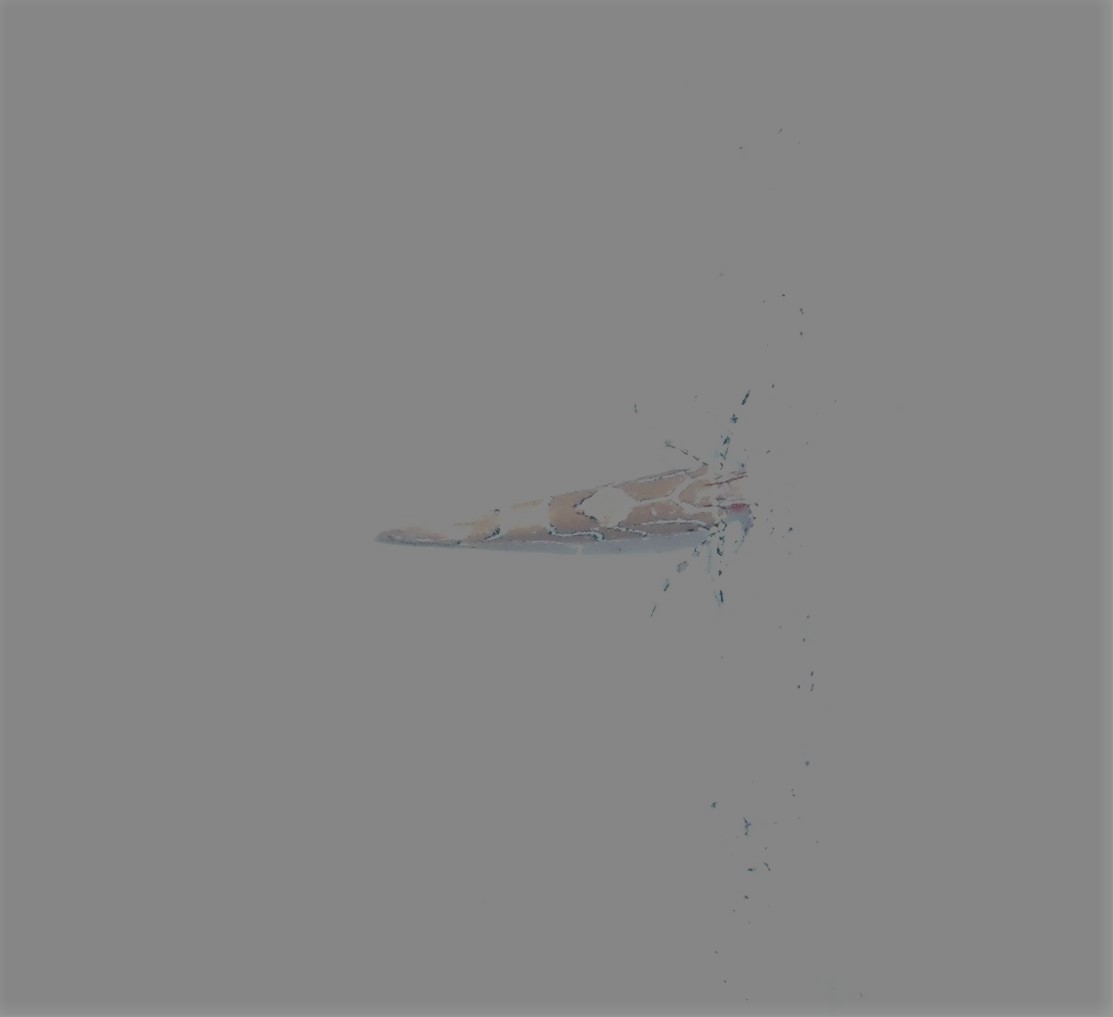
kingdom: Animalia
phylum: Arthropoda
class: Insecta
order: Lepidoptera
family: Cosmopterigidae
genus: Pyroderces
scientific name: Pyroderces apparitella
